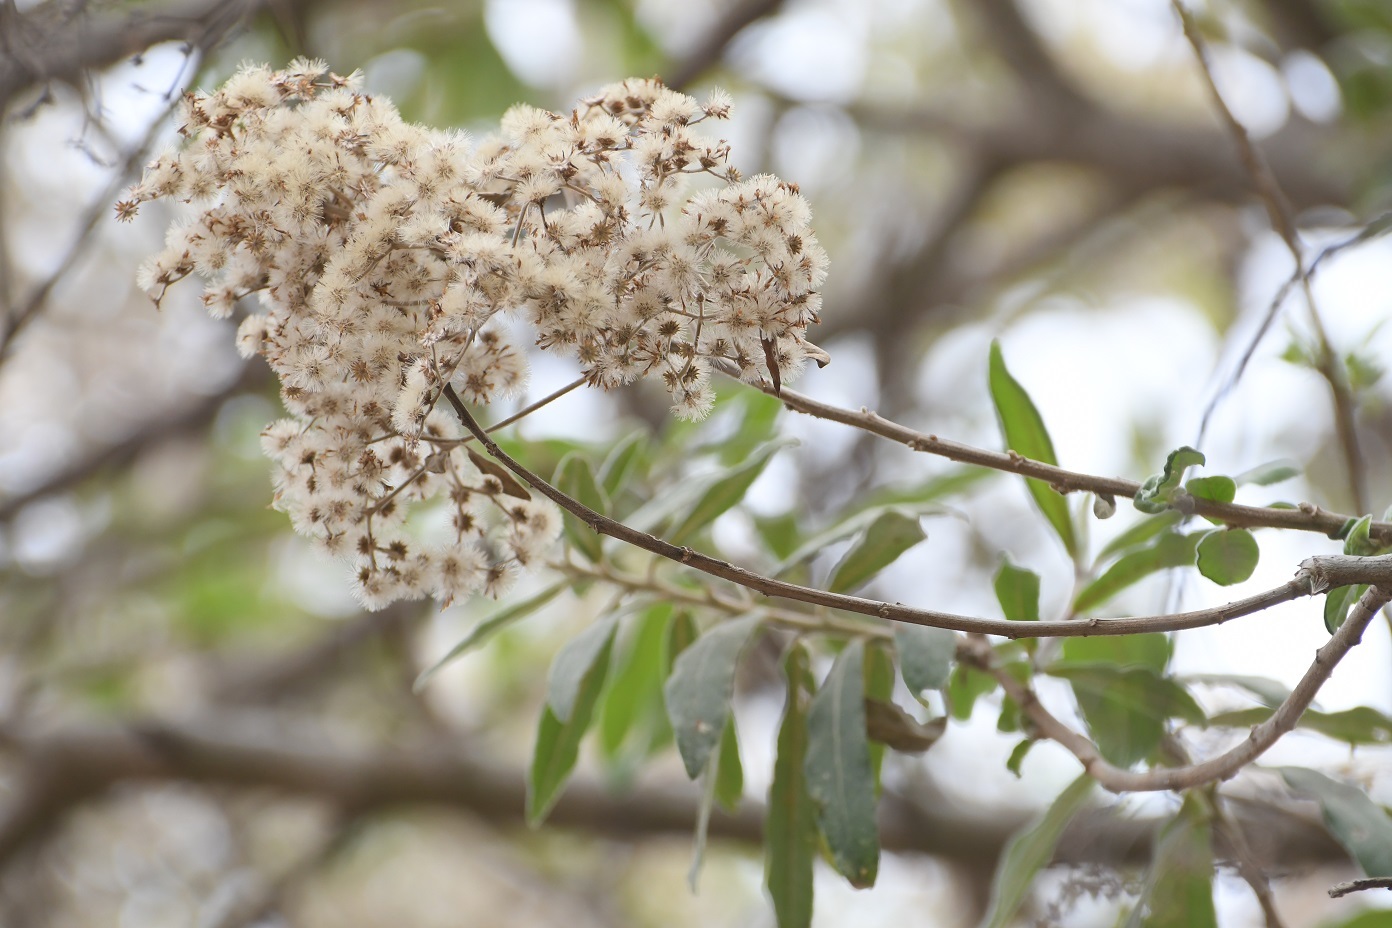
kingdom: Plantae
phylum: Tracheophyta
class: Magnoliopsida
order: Asterales
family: Asteraceae
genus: Vernonanthura
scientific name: Vernonanthura patens
